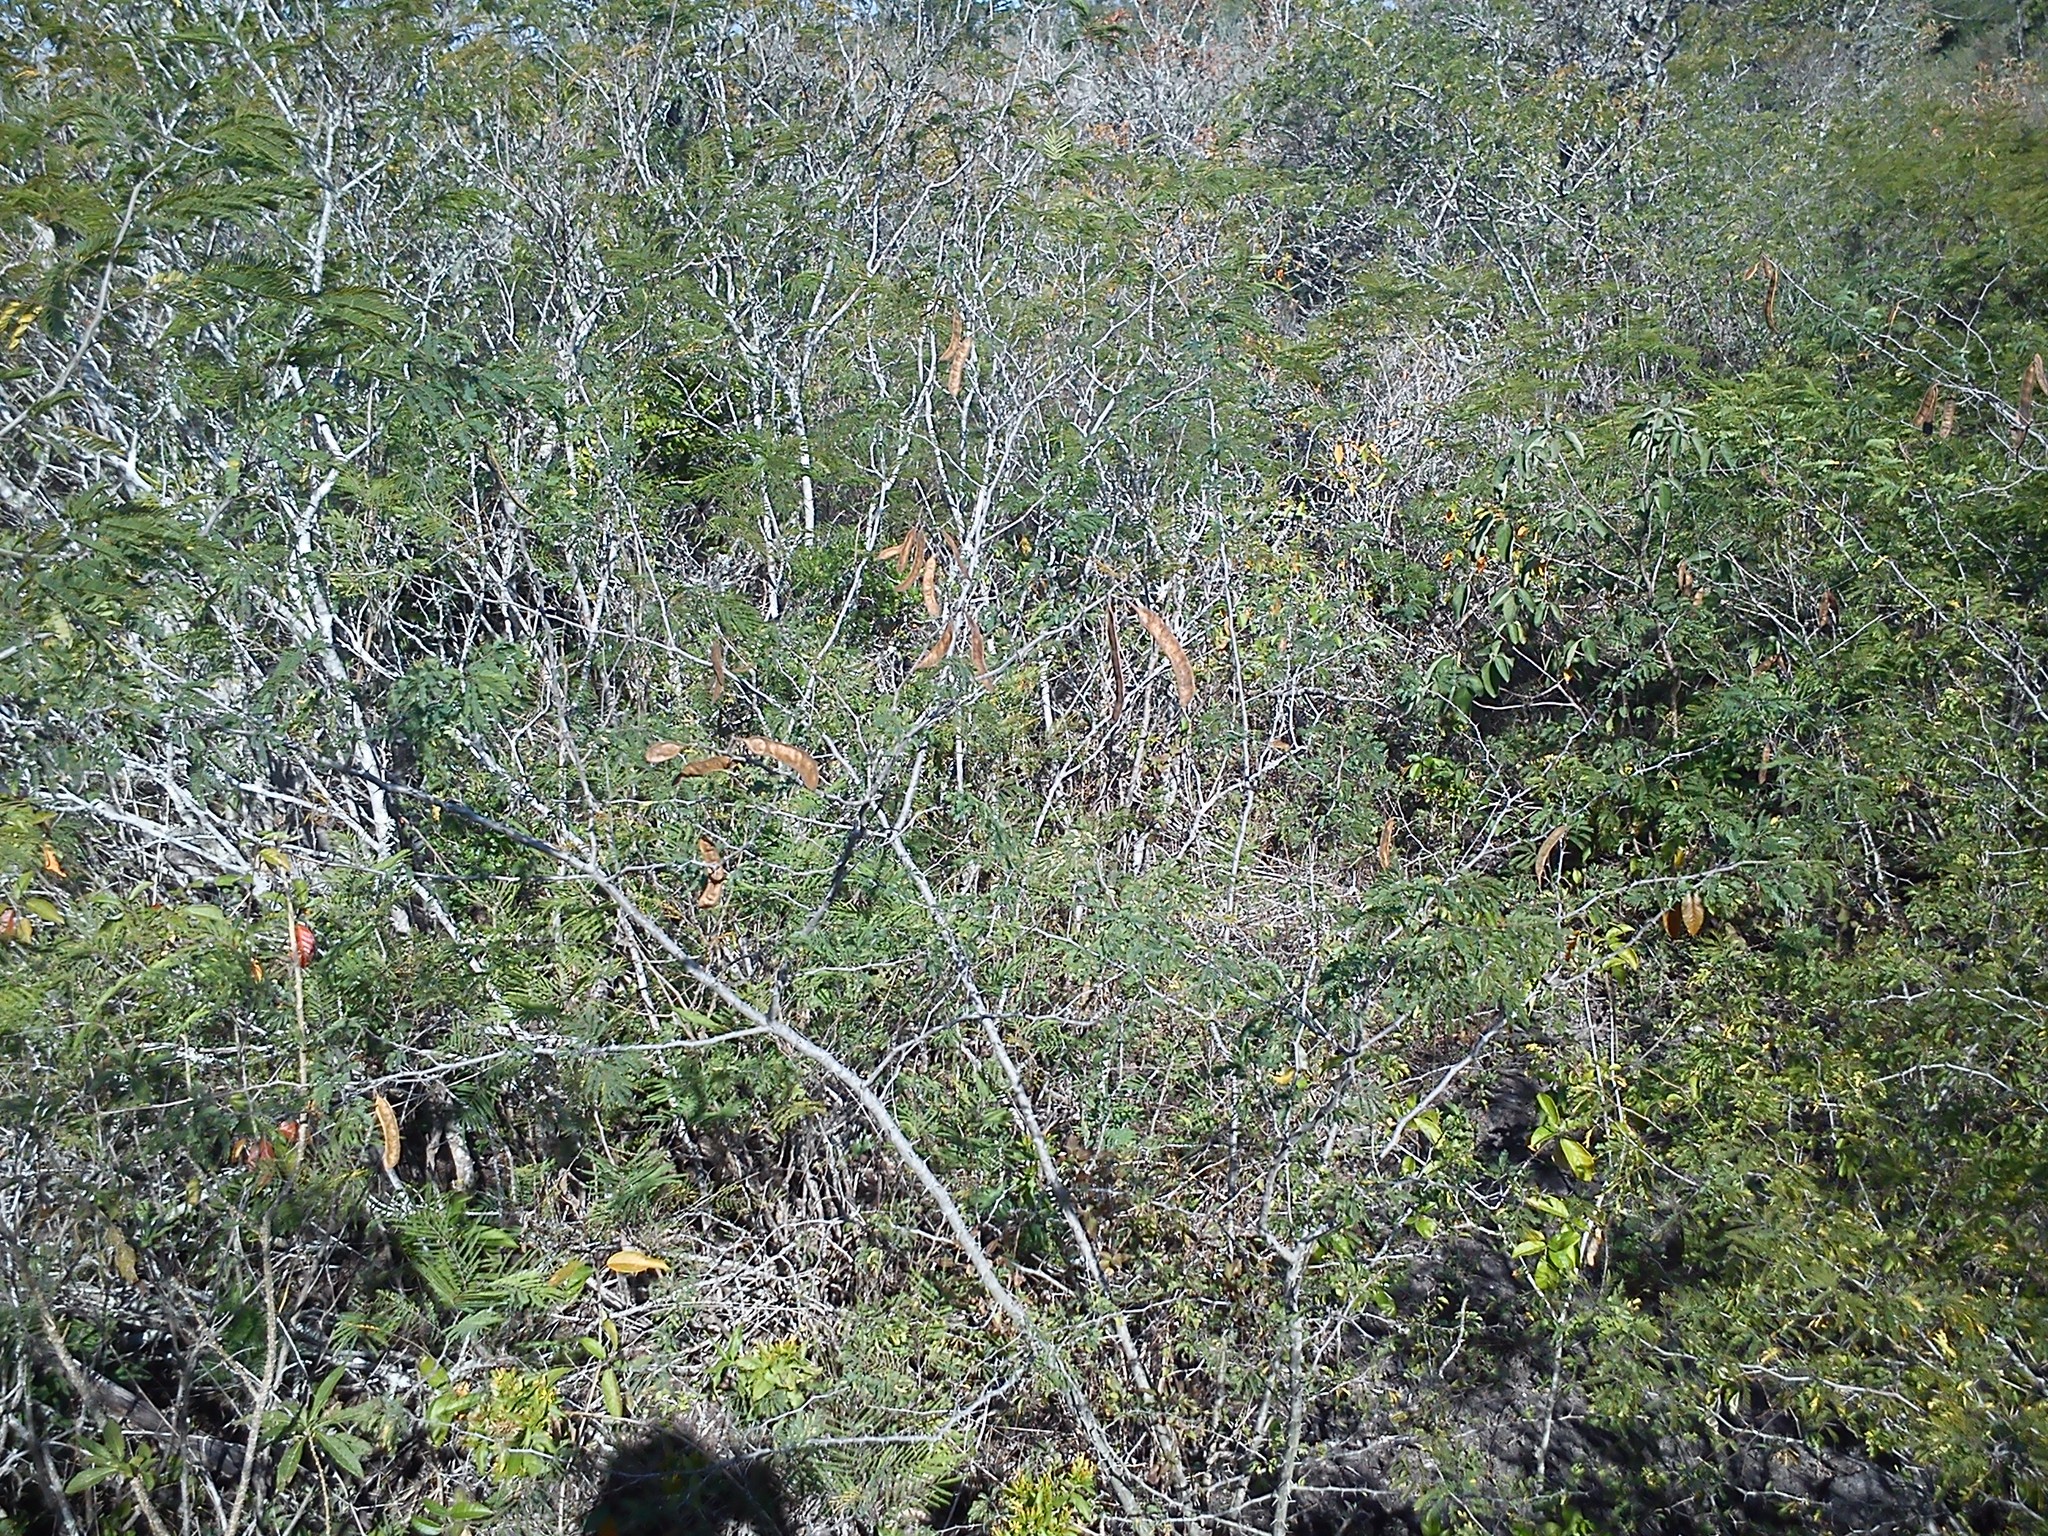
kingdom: Plantae
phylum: Tracheophyta
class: Magnoliopsida
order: Fabales
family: Fabaceae
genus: Havardia
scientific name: Havardia pallens
